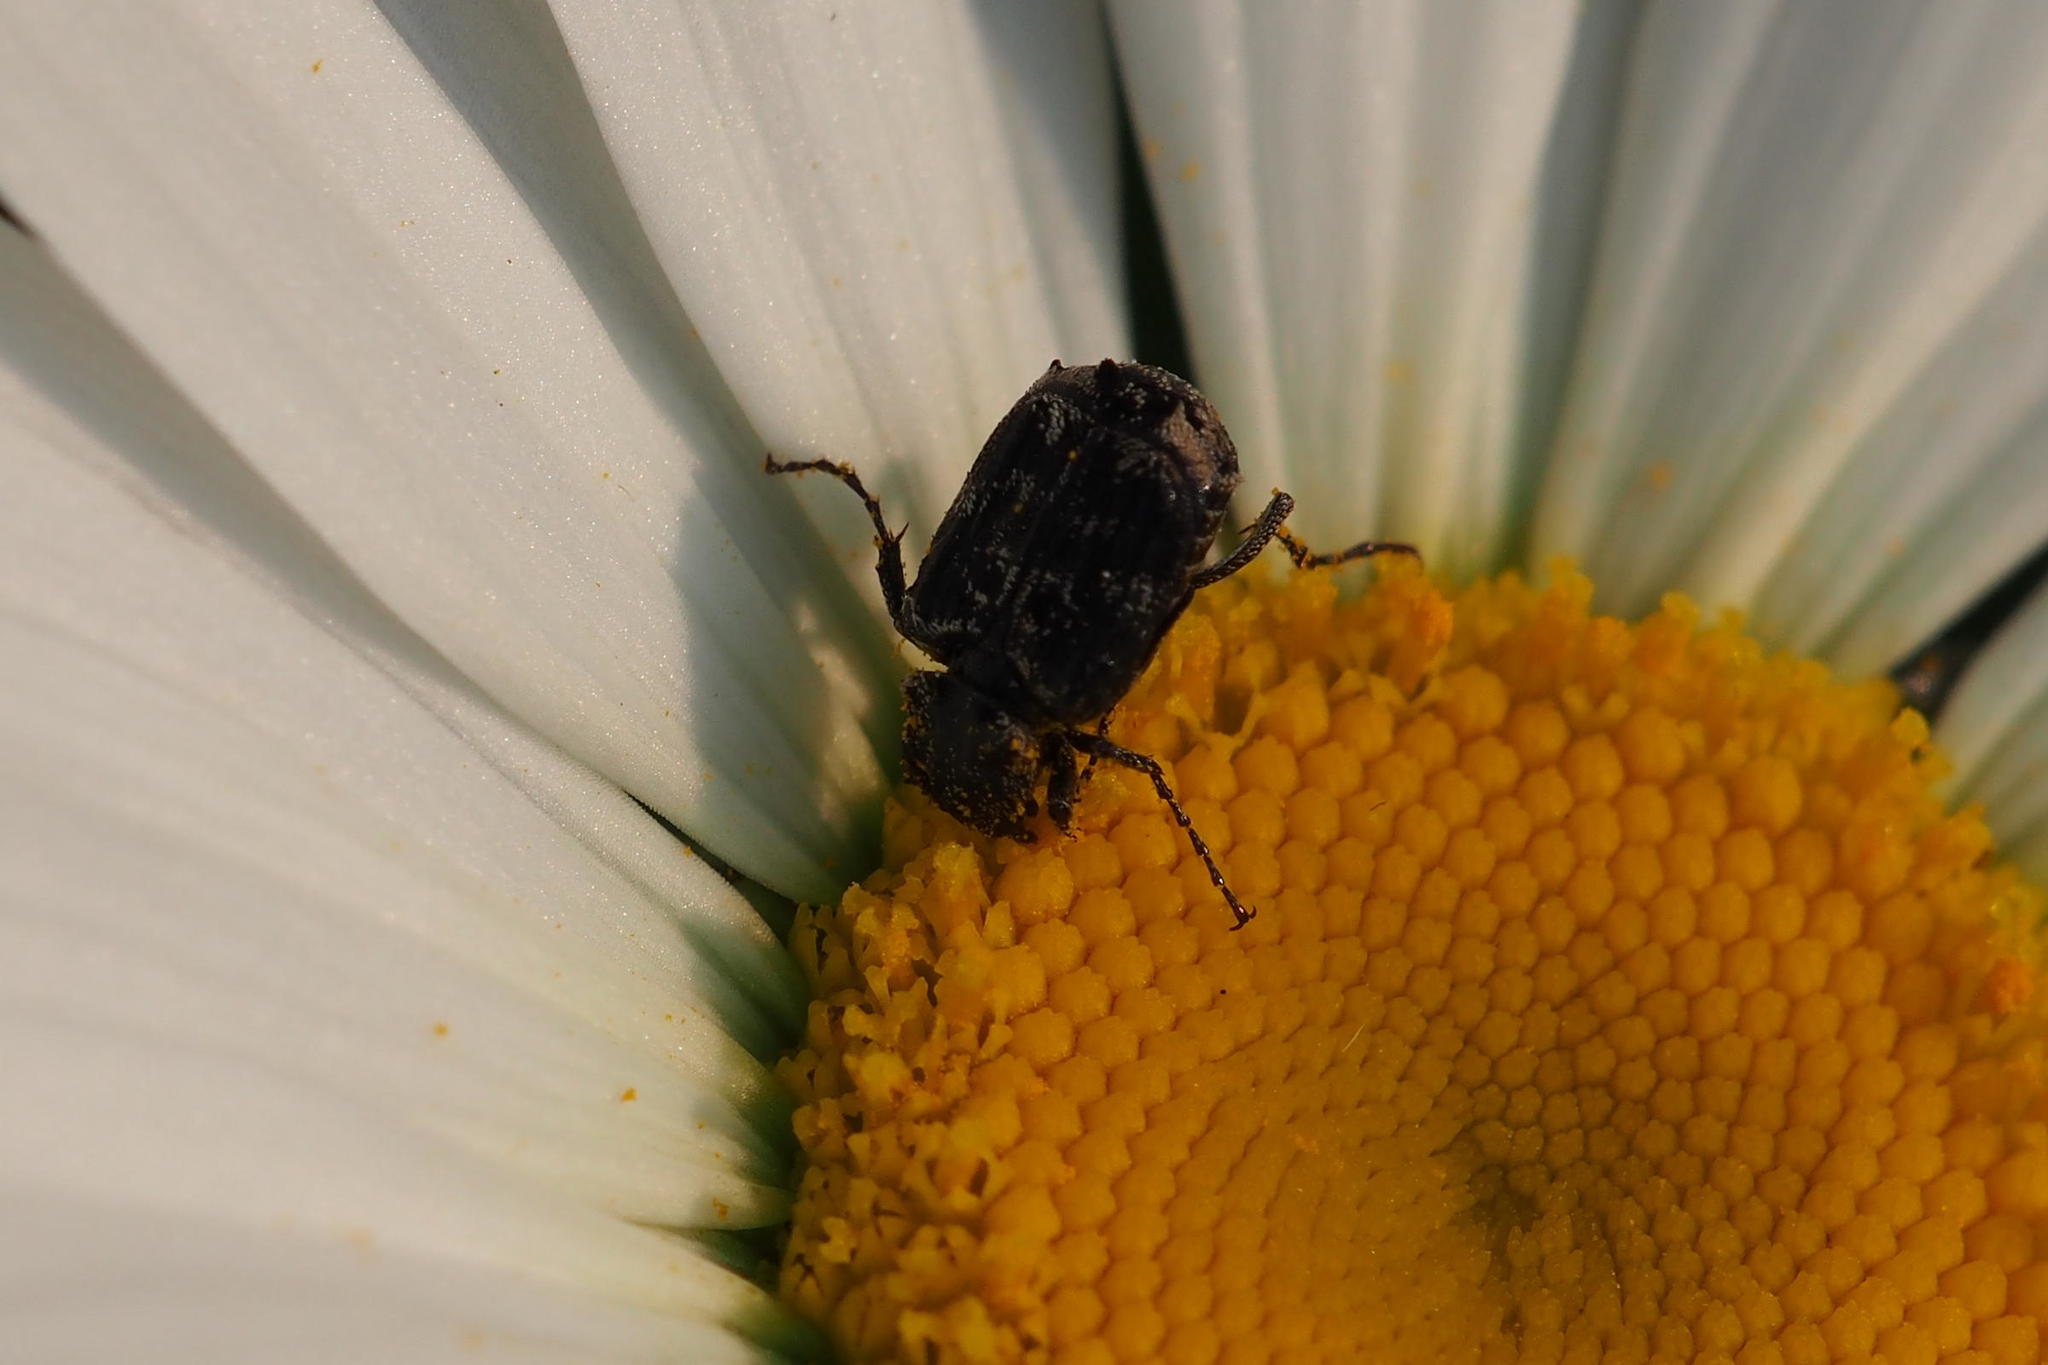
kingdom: Animalia
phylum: Arthropoda
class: Insecta
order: Coleoptera
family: Scarabaeidae
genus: Nipponovalgus
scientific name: Nipponovalgus angusticollis
